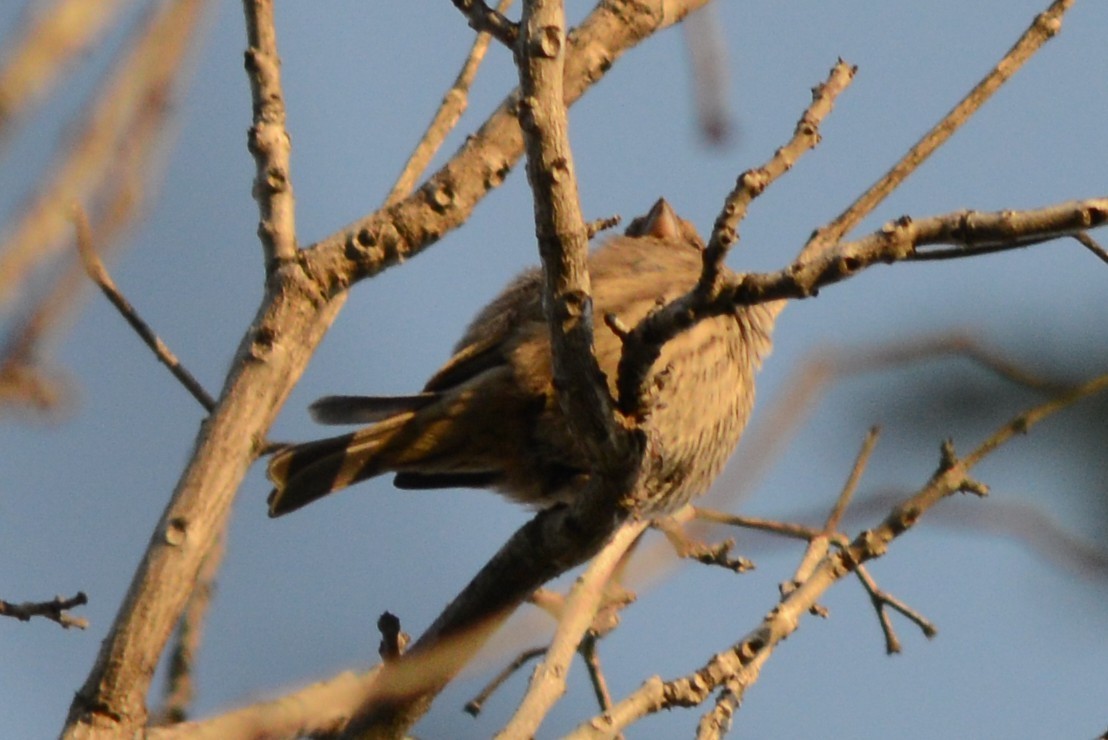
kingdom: Animalia
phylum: Chordata
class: Aves
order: Passeriformes
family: Fringillidae
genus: Haemorhous
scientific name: Haemorhous mexicanus
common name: House finch
